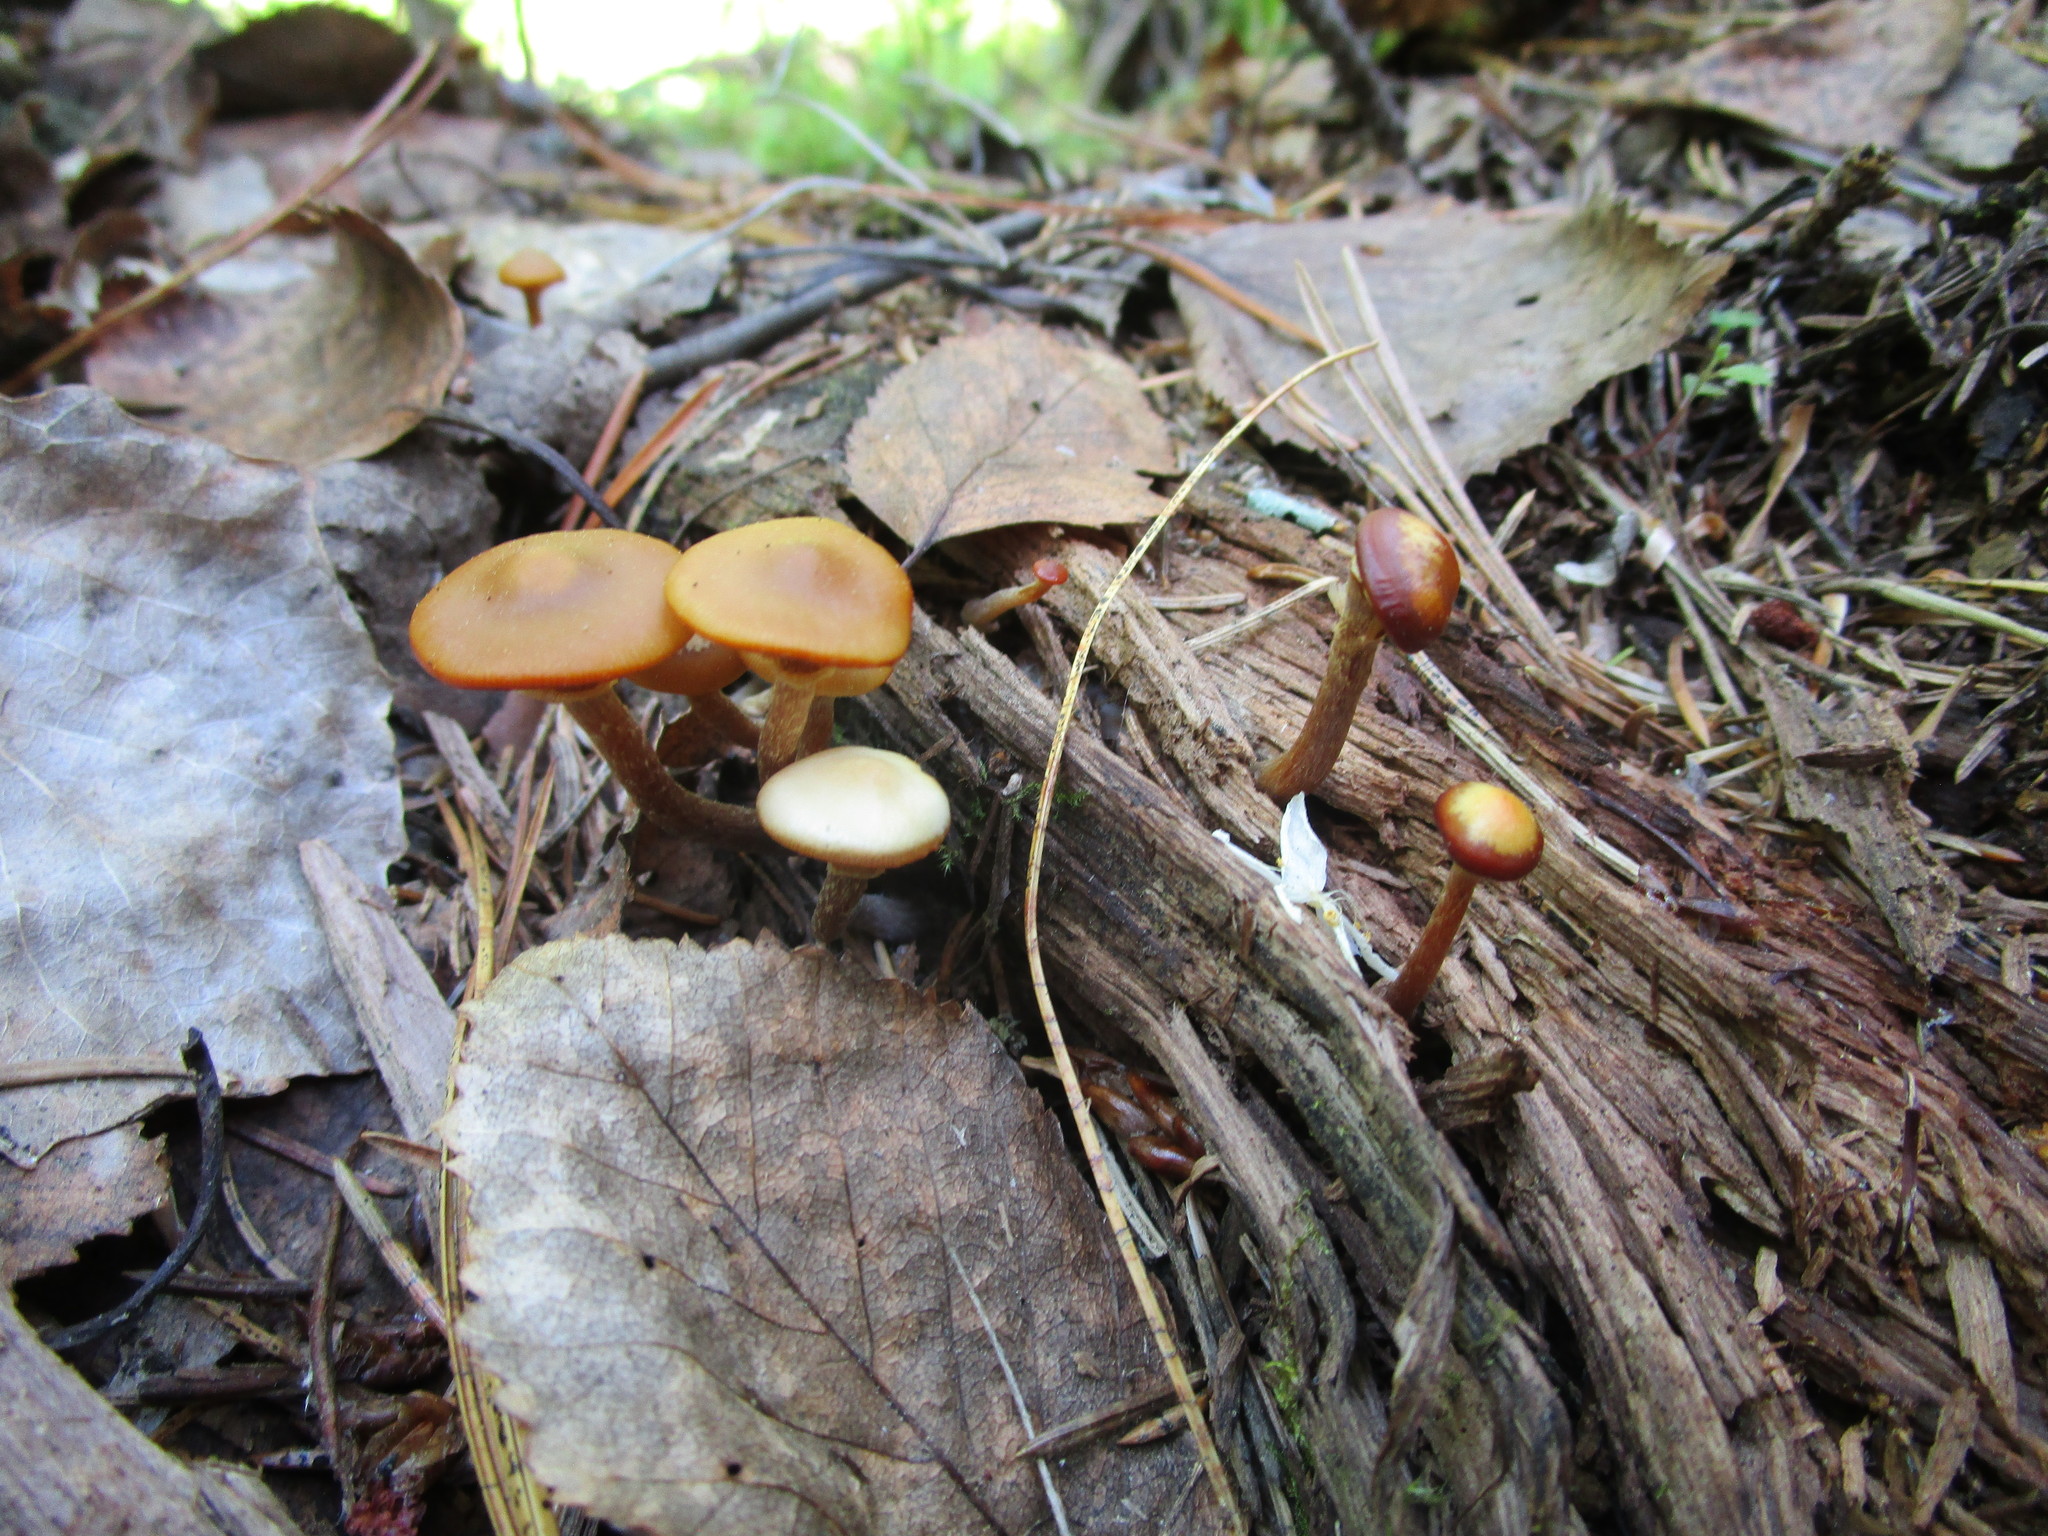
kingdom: Fungi
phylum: Basidiomycota
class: Agaricomycetes
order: Agaricales
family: Strophariaceae
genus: Pholiota
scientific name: Pholiota lignicola
